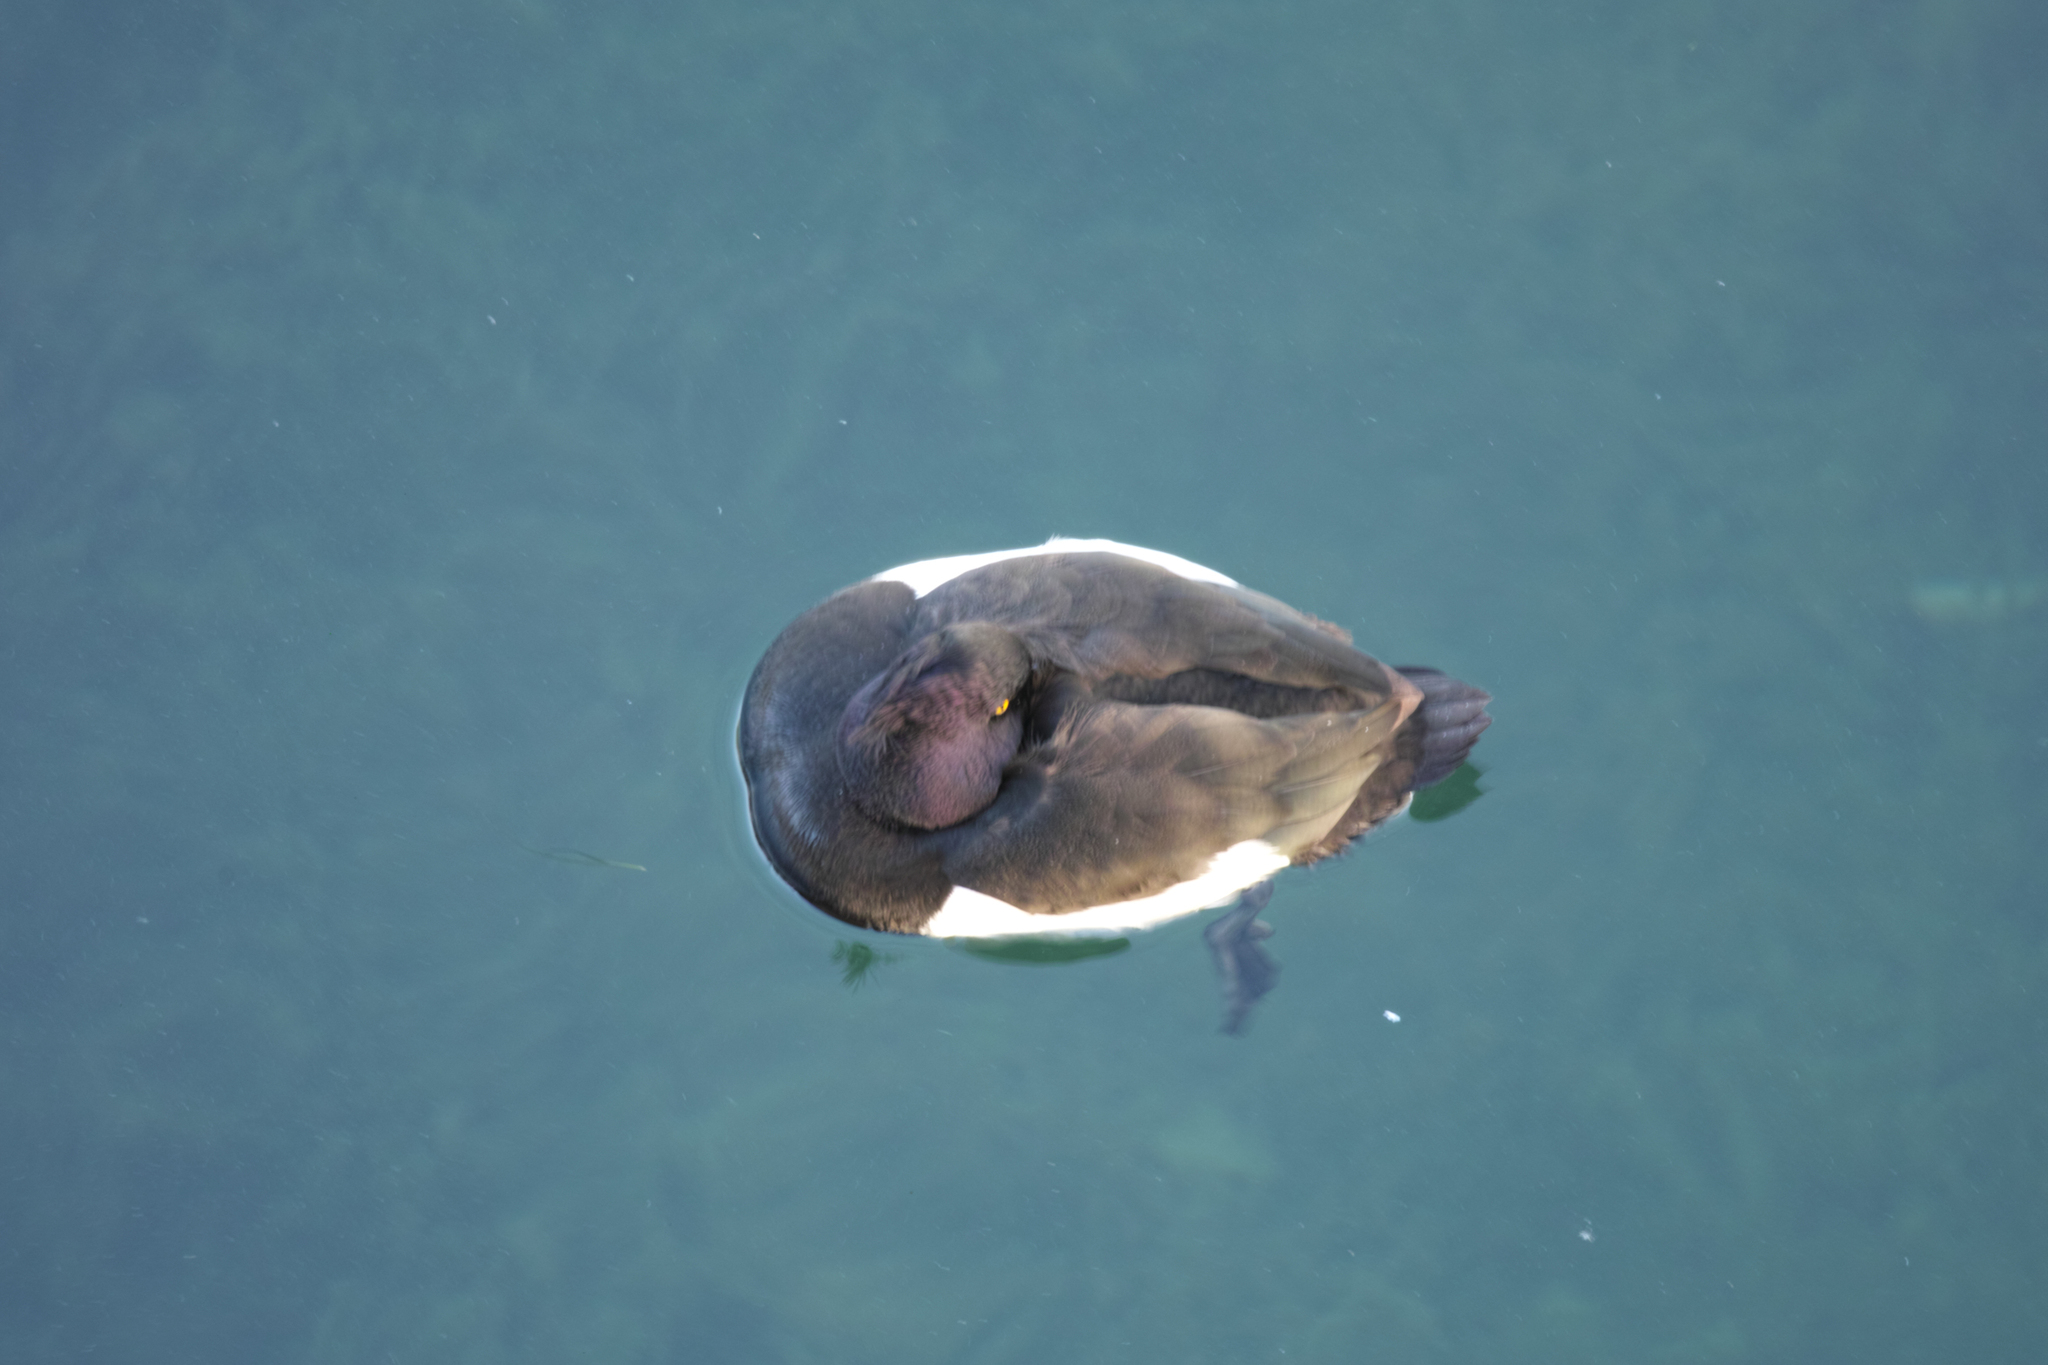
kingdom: Animalia
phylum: Chordata
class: Aves
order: Anseriformes
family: Anatidae
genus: Aythya
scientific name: Aythya fuligula
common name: Tufted duck
